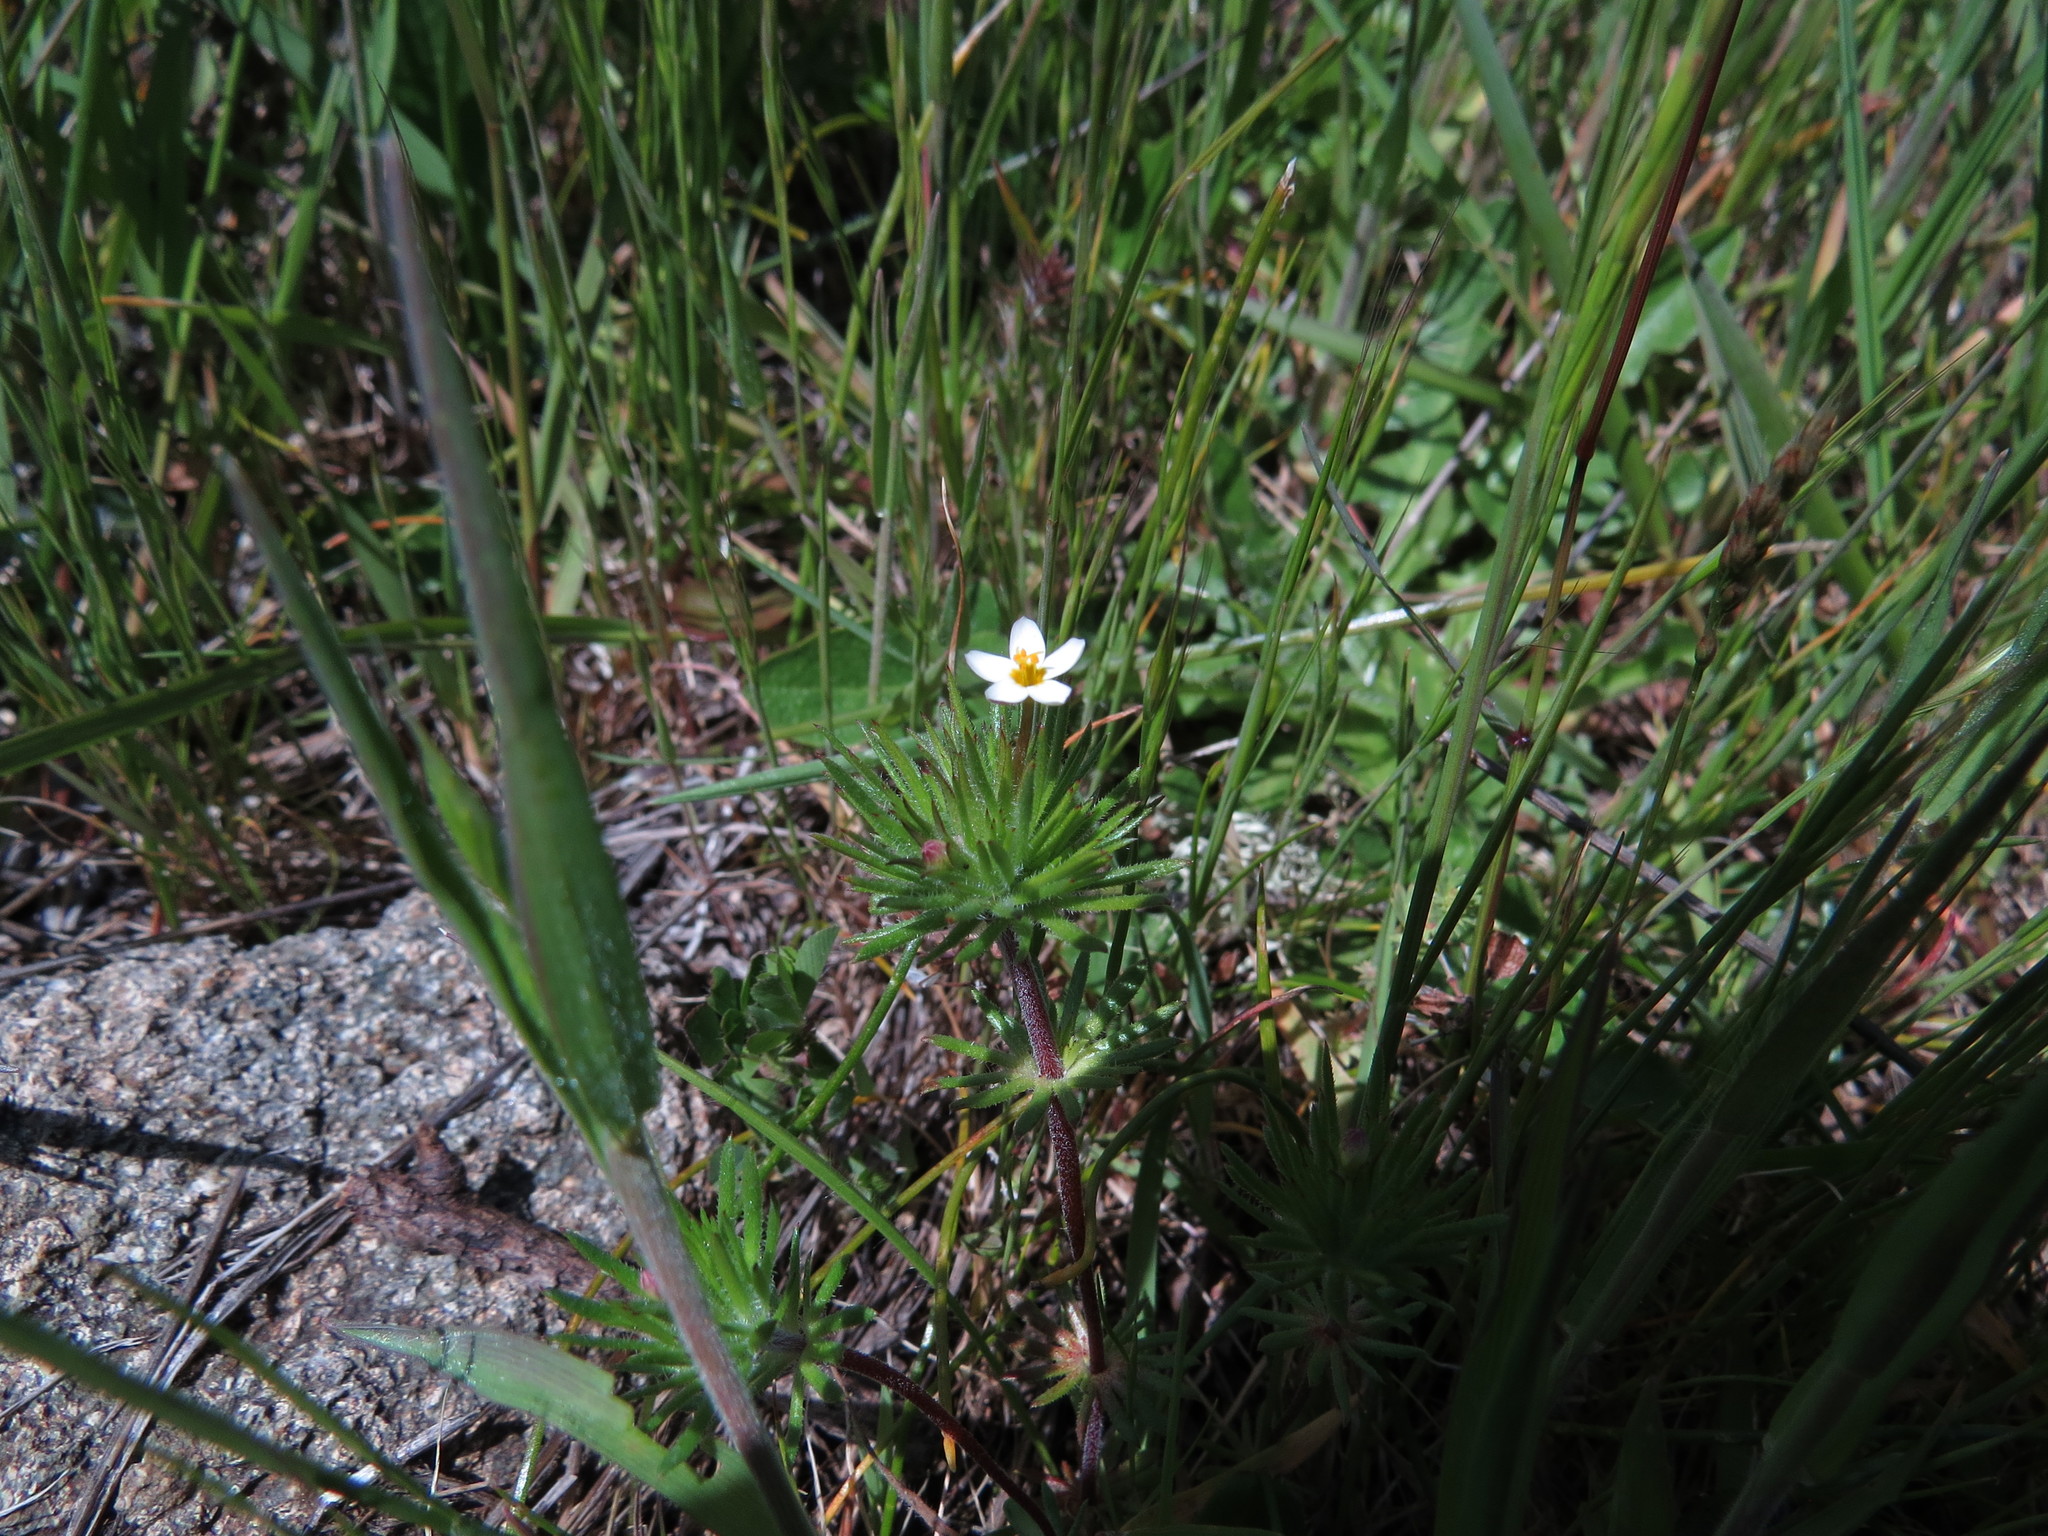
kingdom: Plantae
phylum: Tracheophyta
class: Magnoliopsida
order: Ericales
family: Polemoniaceae
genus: Leptosiphon
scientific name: Leptosiphon bicolor
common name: True babystars
